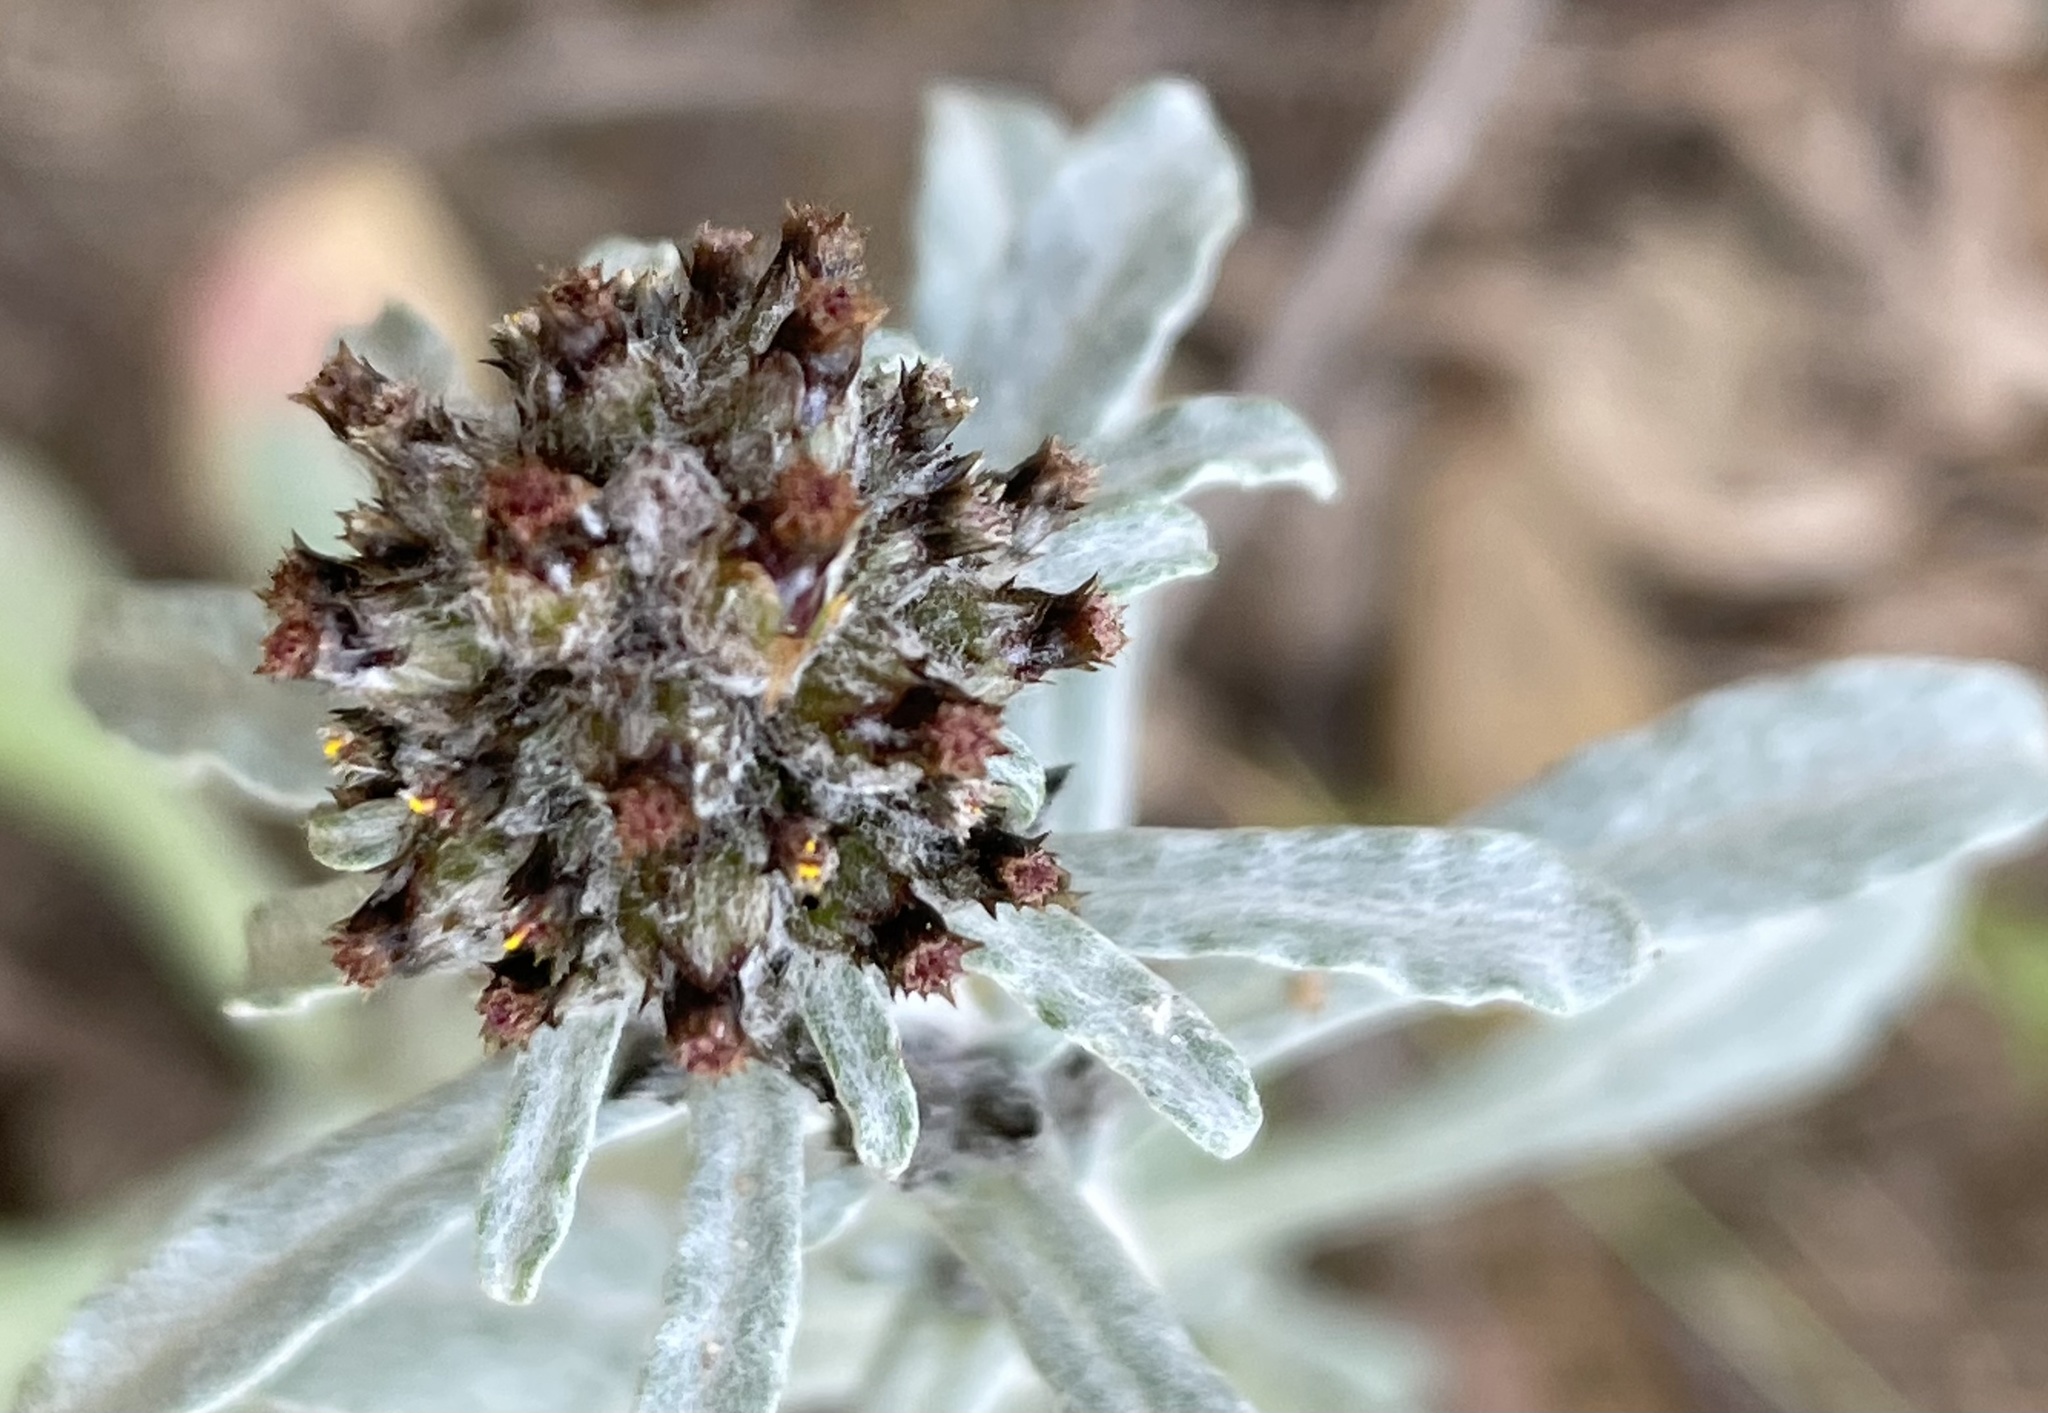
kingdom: Plantae
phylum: Tracheophyta
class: Magnoliopsida
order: Asterales
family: Asteraceae
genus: Gamochaeta
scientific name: Gamochaeta ustulata
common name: Pacific cudweed
